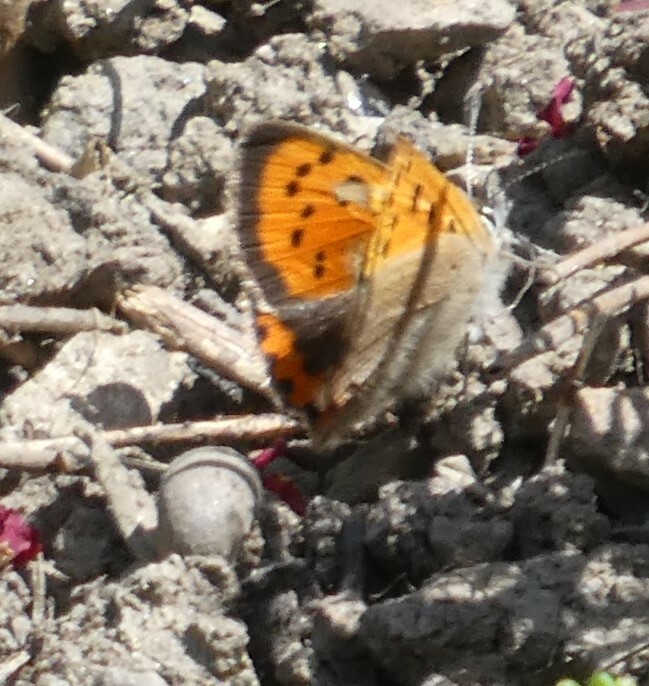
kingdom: Animalia
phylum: Arthropoda
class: Insecta
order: Lepidoptera
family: Lycaenidae
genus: Lycaena
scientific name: Lycaena phlaeas
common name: Small copper
